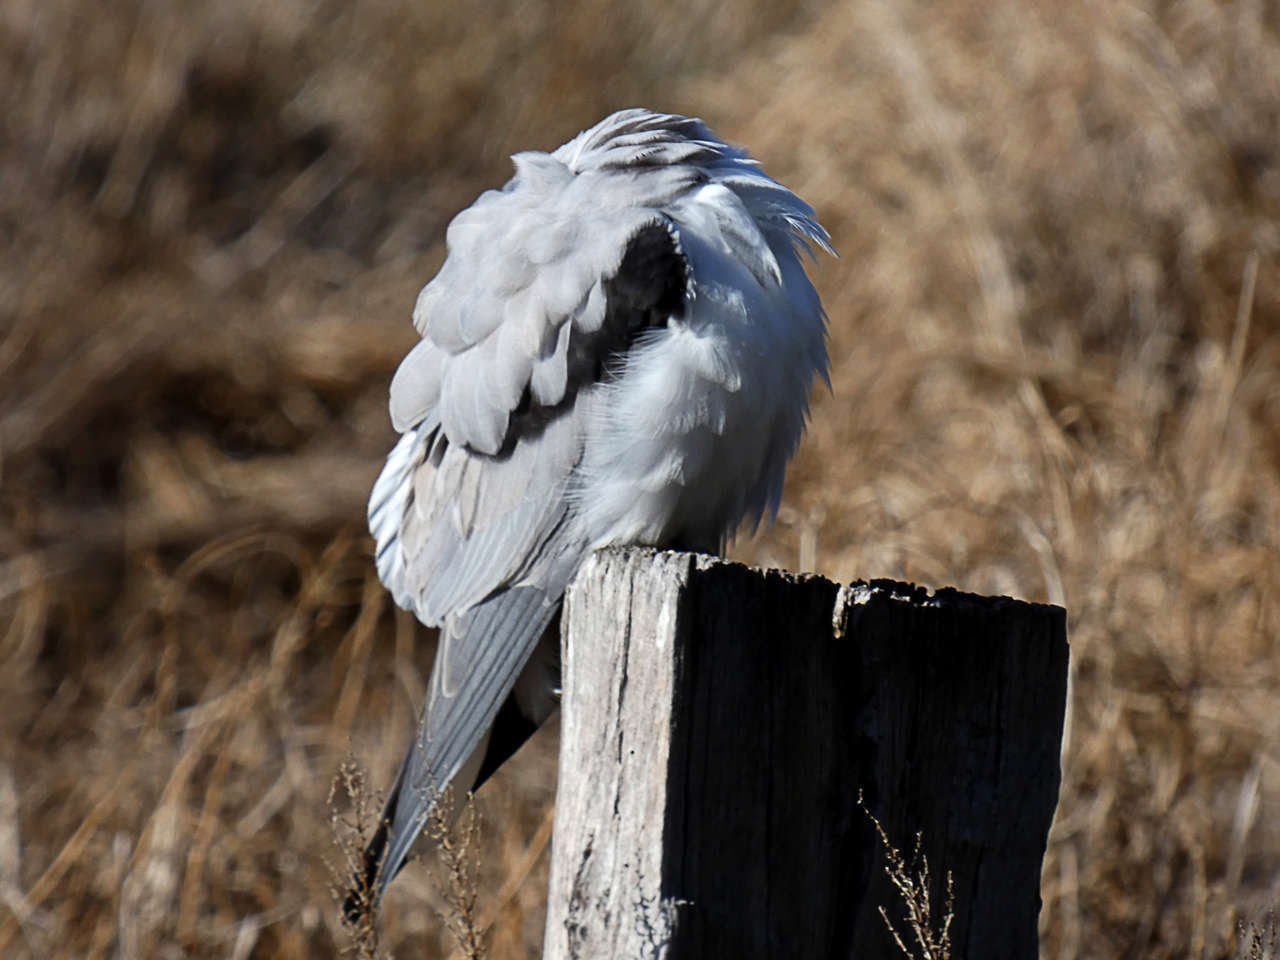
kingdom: Animalia
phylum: Chordata
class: Aves
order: Accipitriformes
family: Accipitridae
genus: Elanus
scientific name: Elanus axillaris
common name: Black-shouldered kite
